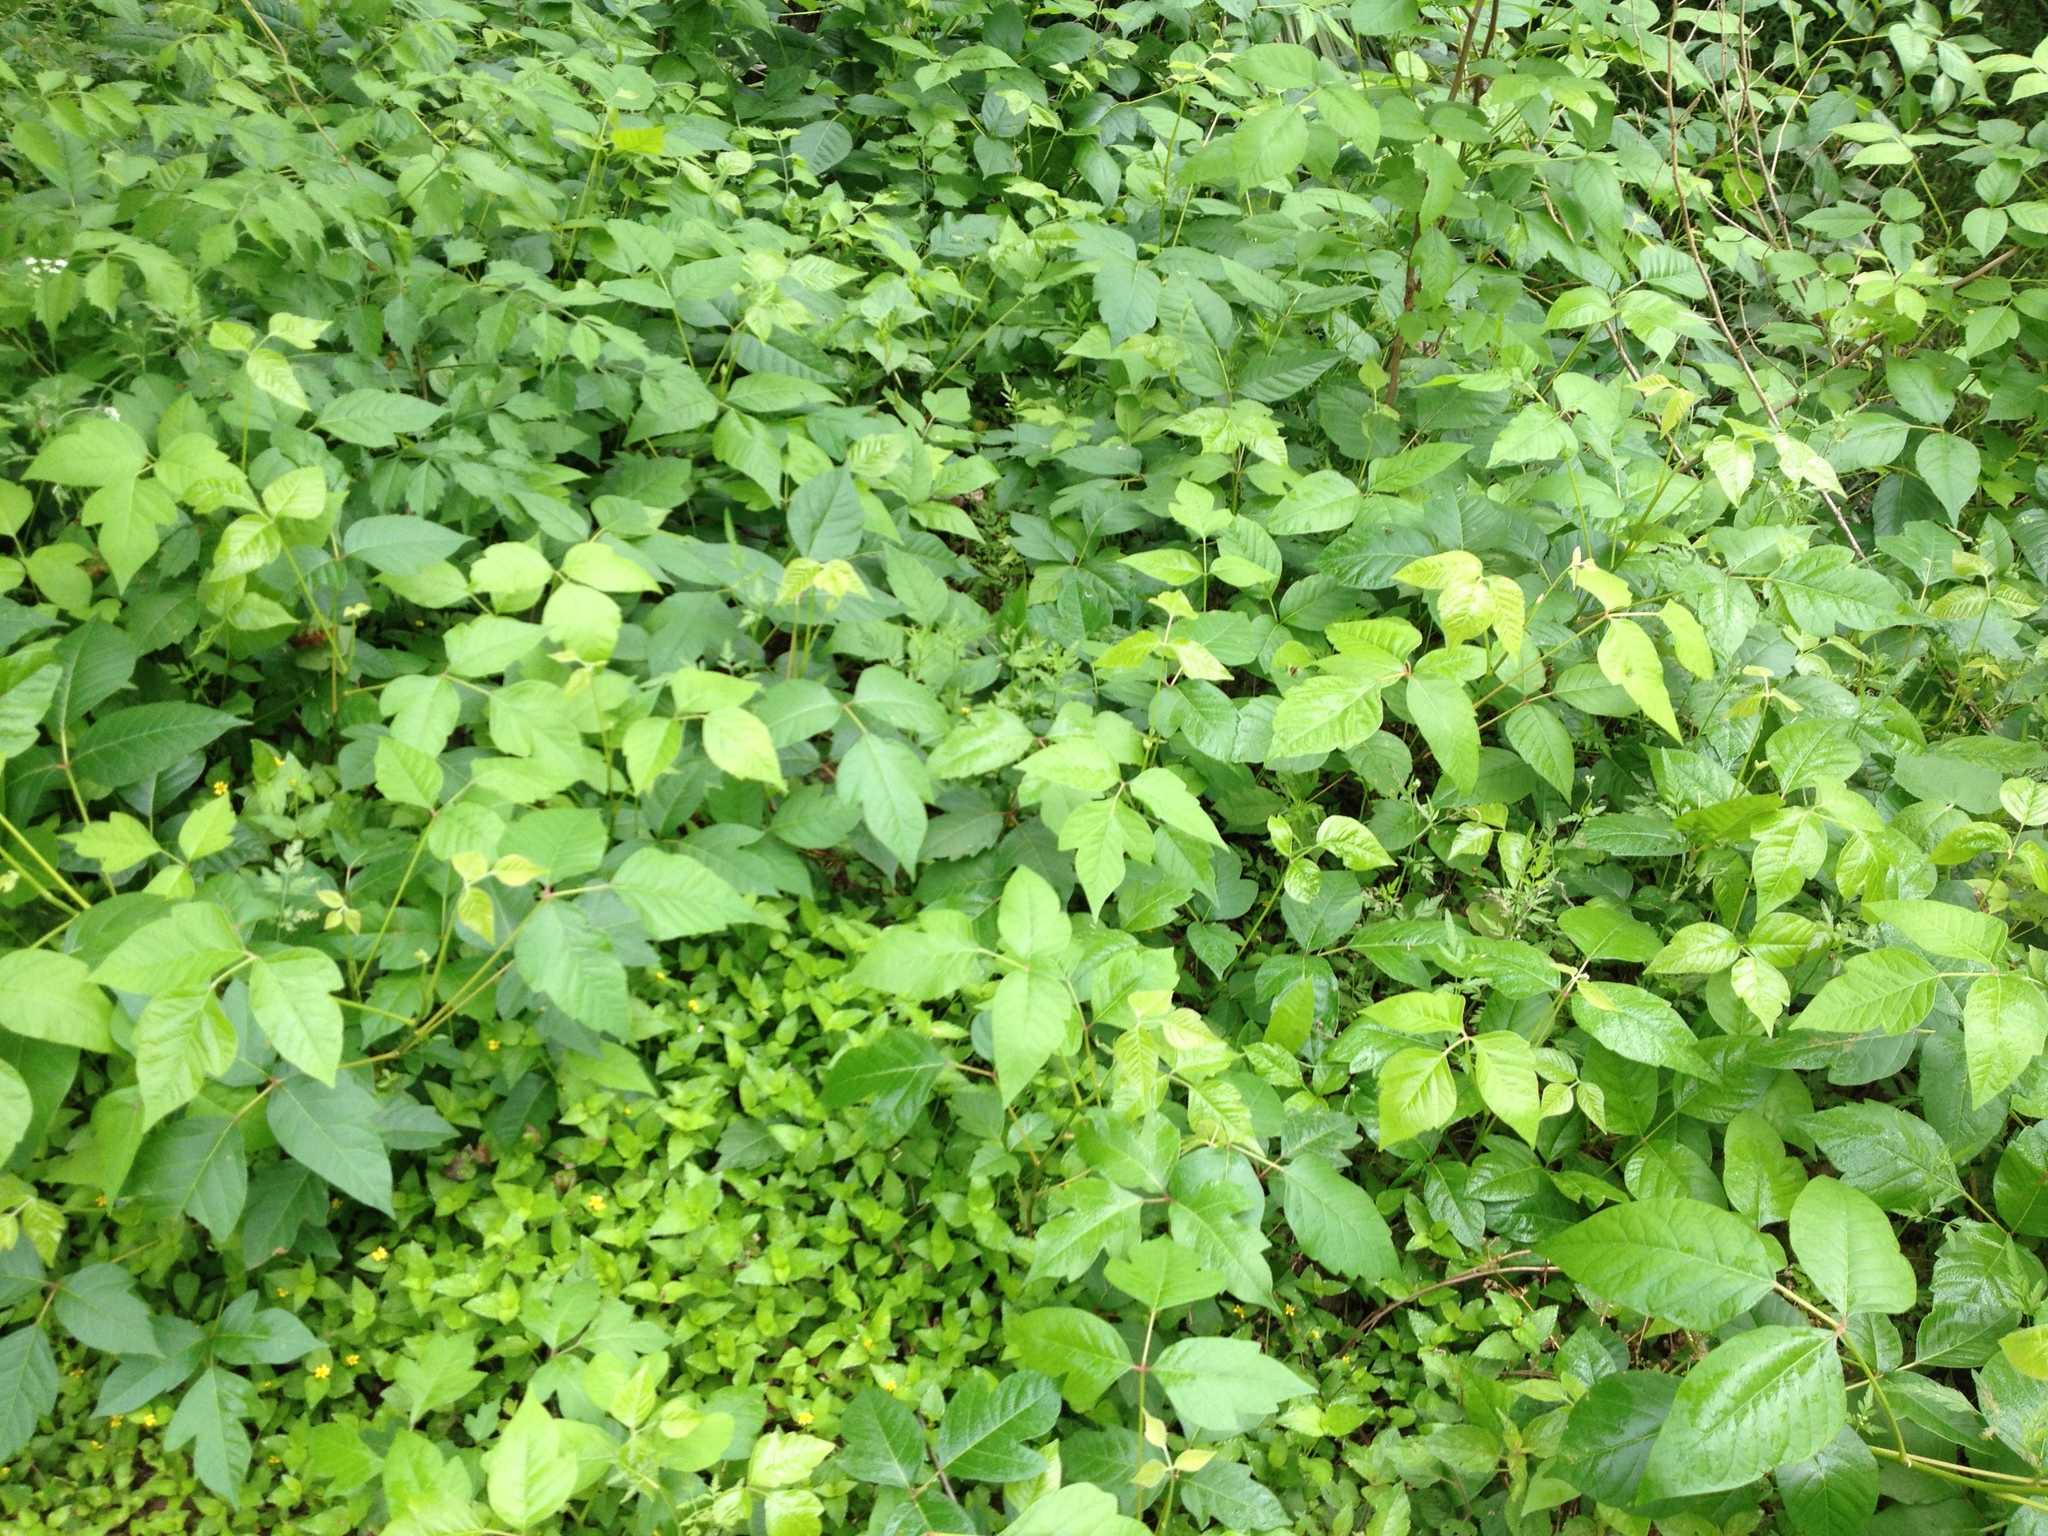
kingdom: Plantae
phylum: Tracheophyta
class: Magnoliopsida
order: Sapindales
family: Anacardiaceae
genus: Toxicodendron
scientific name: Toxicodendron radicans
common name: Poison ivy
